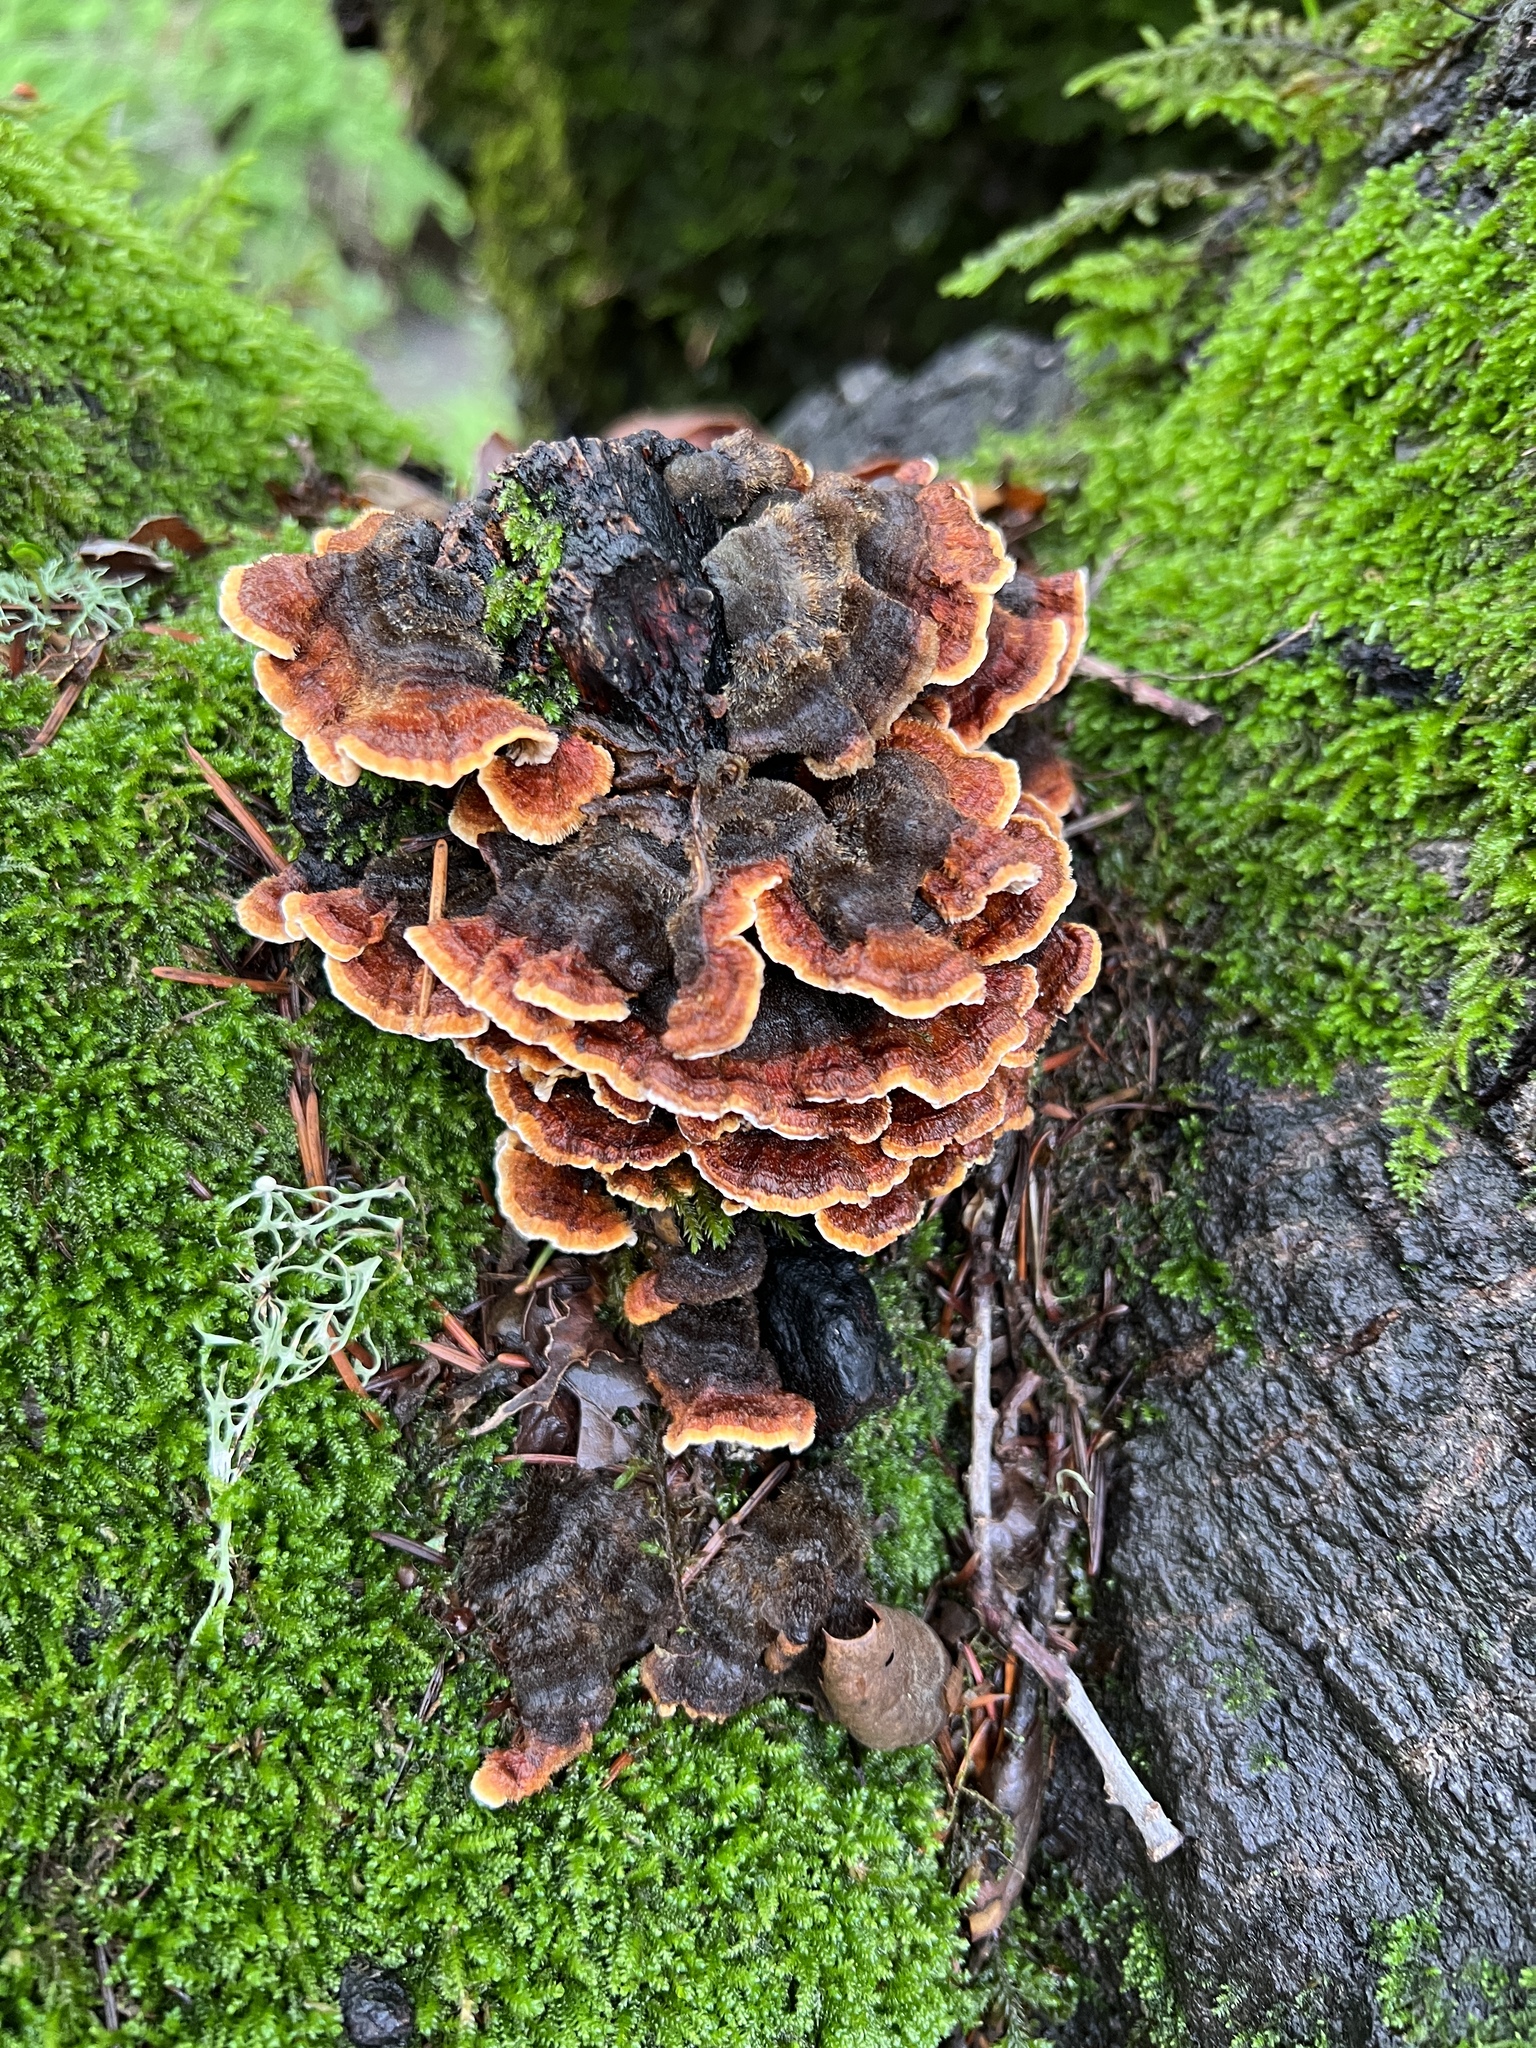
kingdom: Fungi
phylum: Basidiomycota
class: Agaricomycetes
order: Russulales
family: Stereaceae
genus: Stereum
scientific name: Stereum hirsutum
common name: Hairy curtain crust
